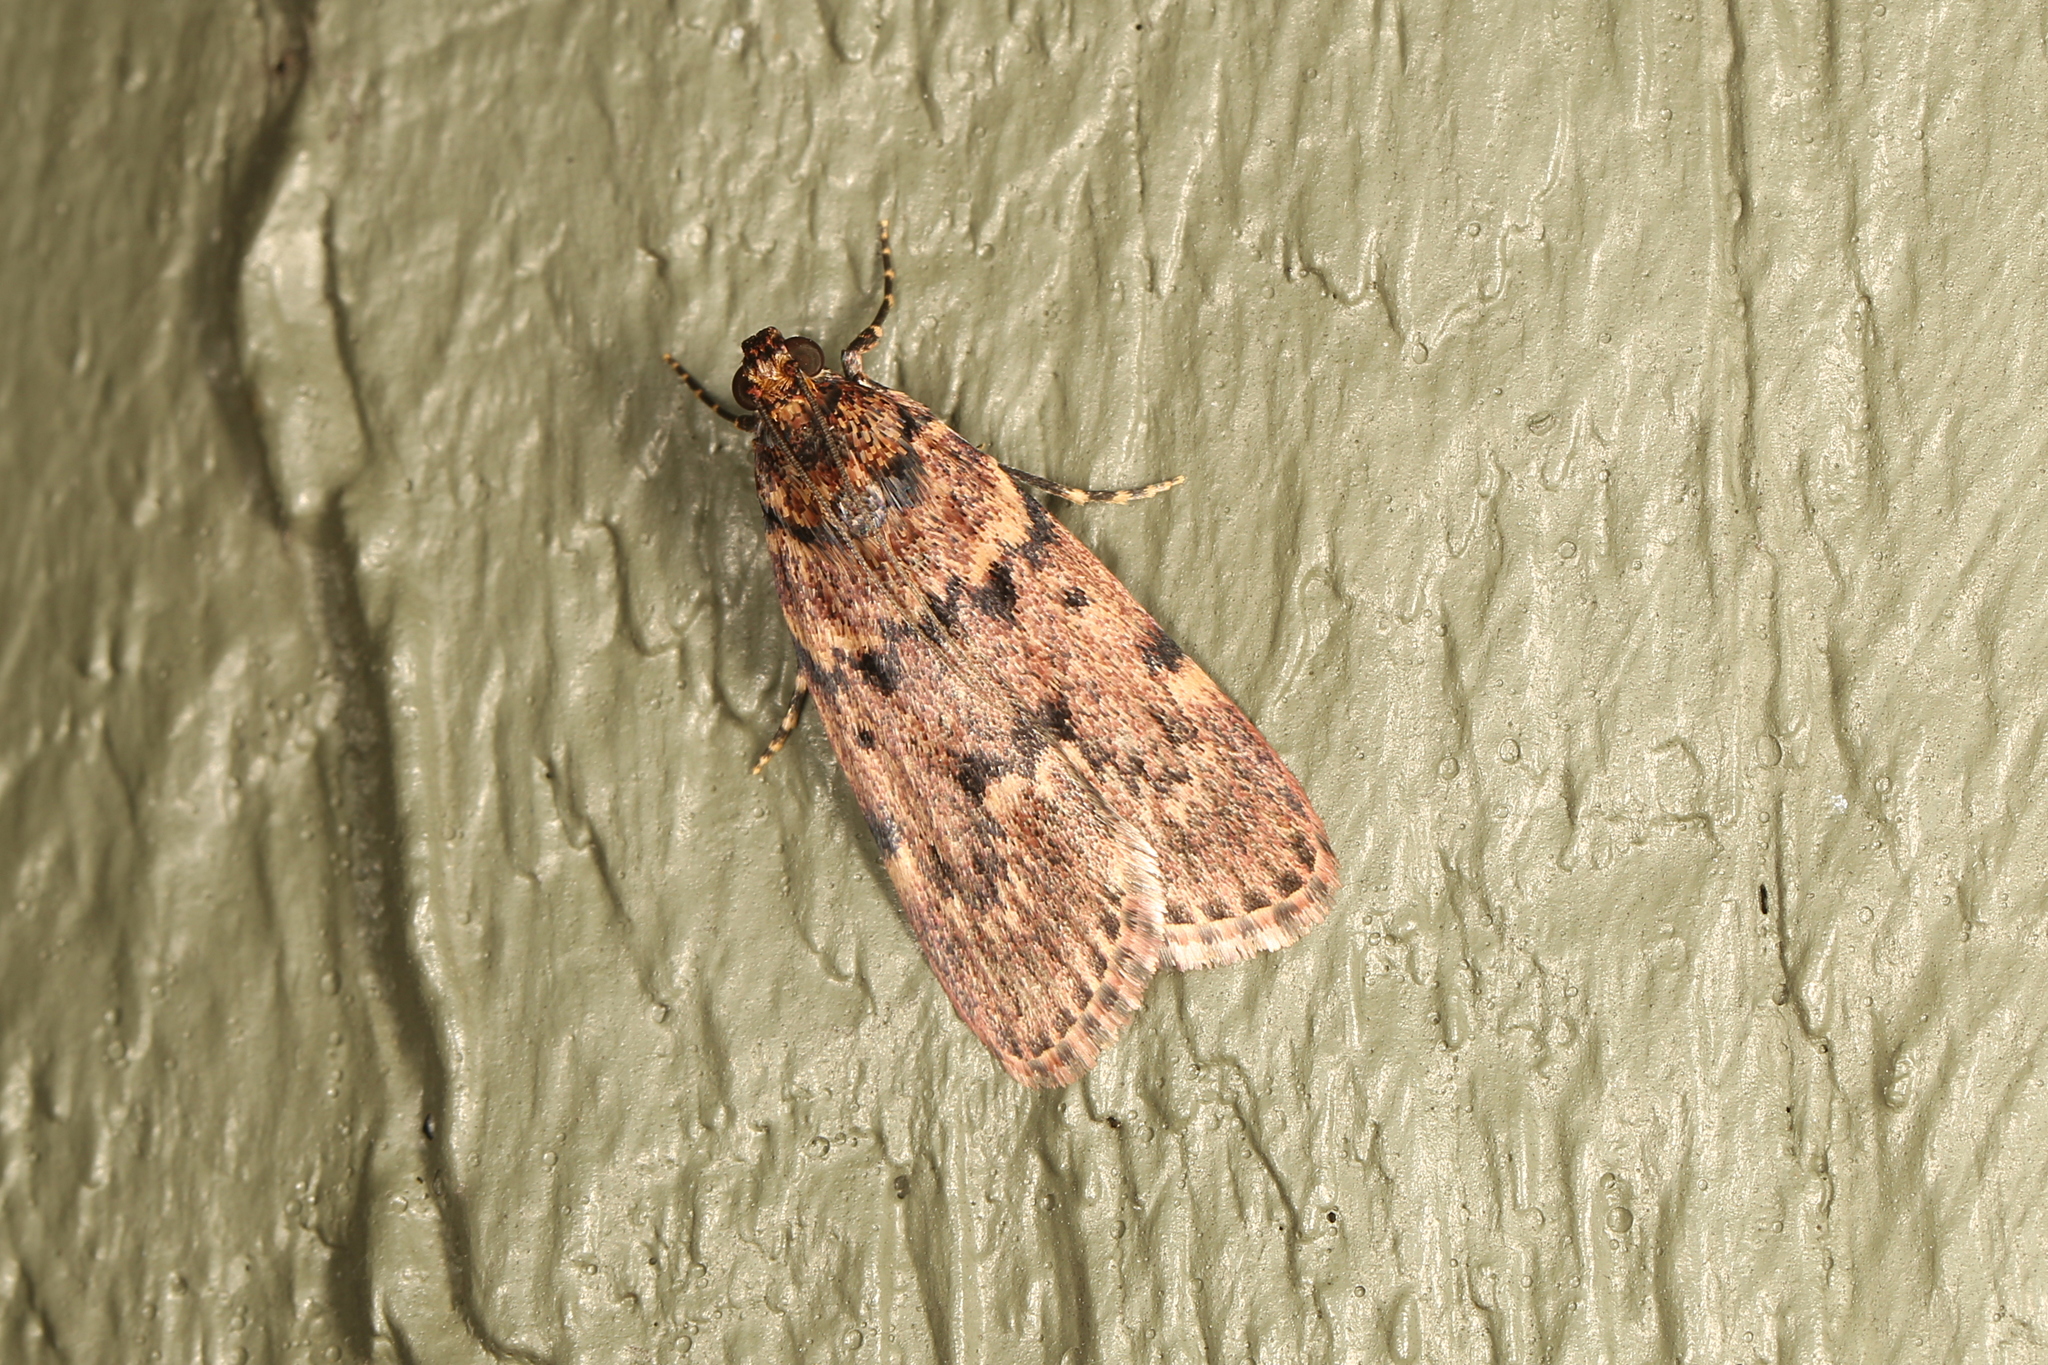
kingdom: Animalia
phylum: Arthropoda
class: Insecta
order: Lepidoptera
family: Pyralidae
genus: Mimaglossa
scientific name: Mimaglossa nauplialis
